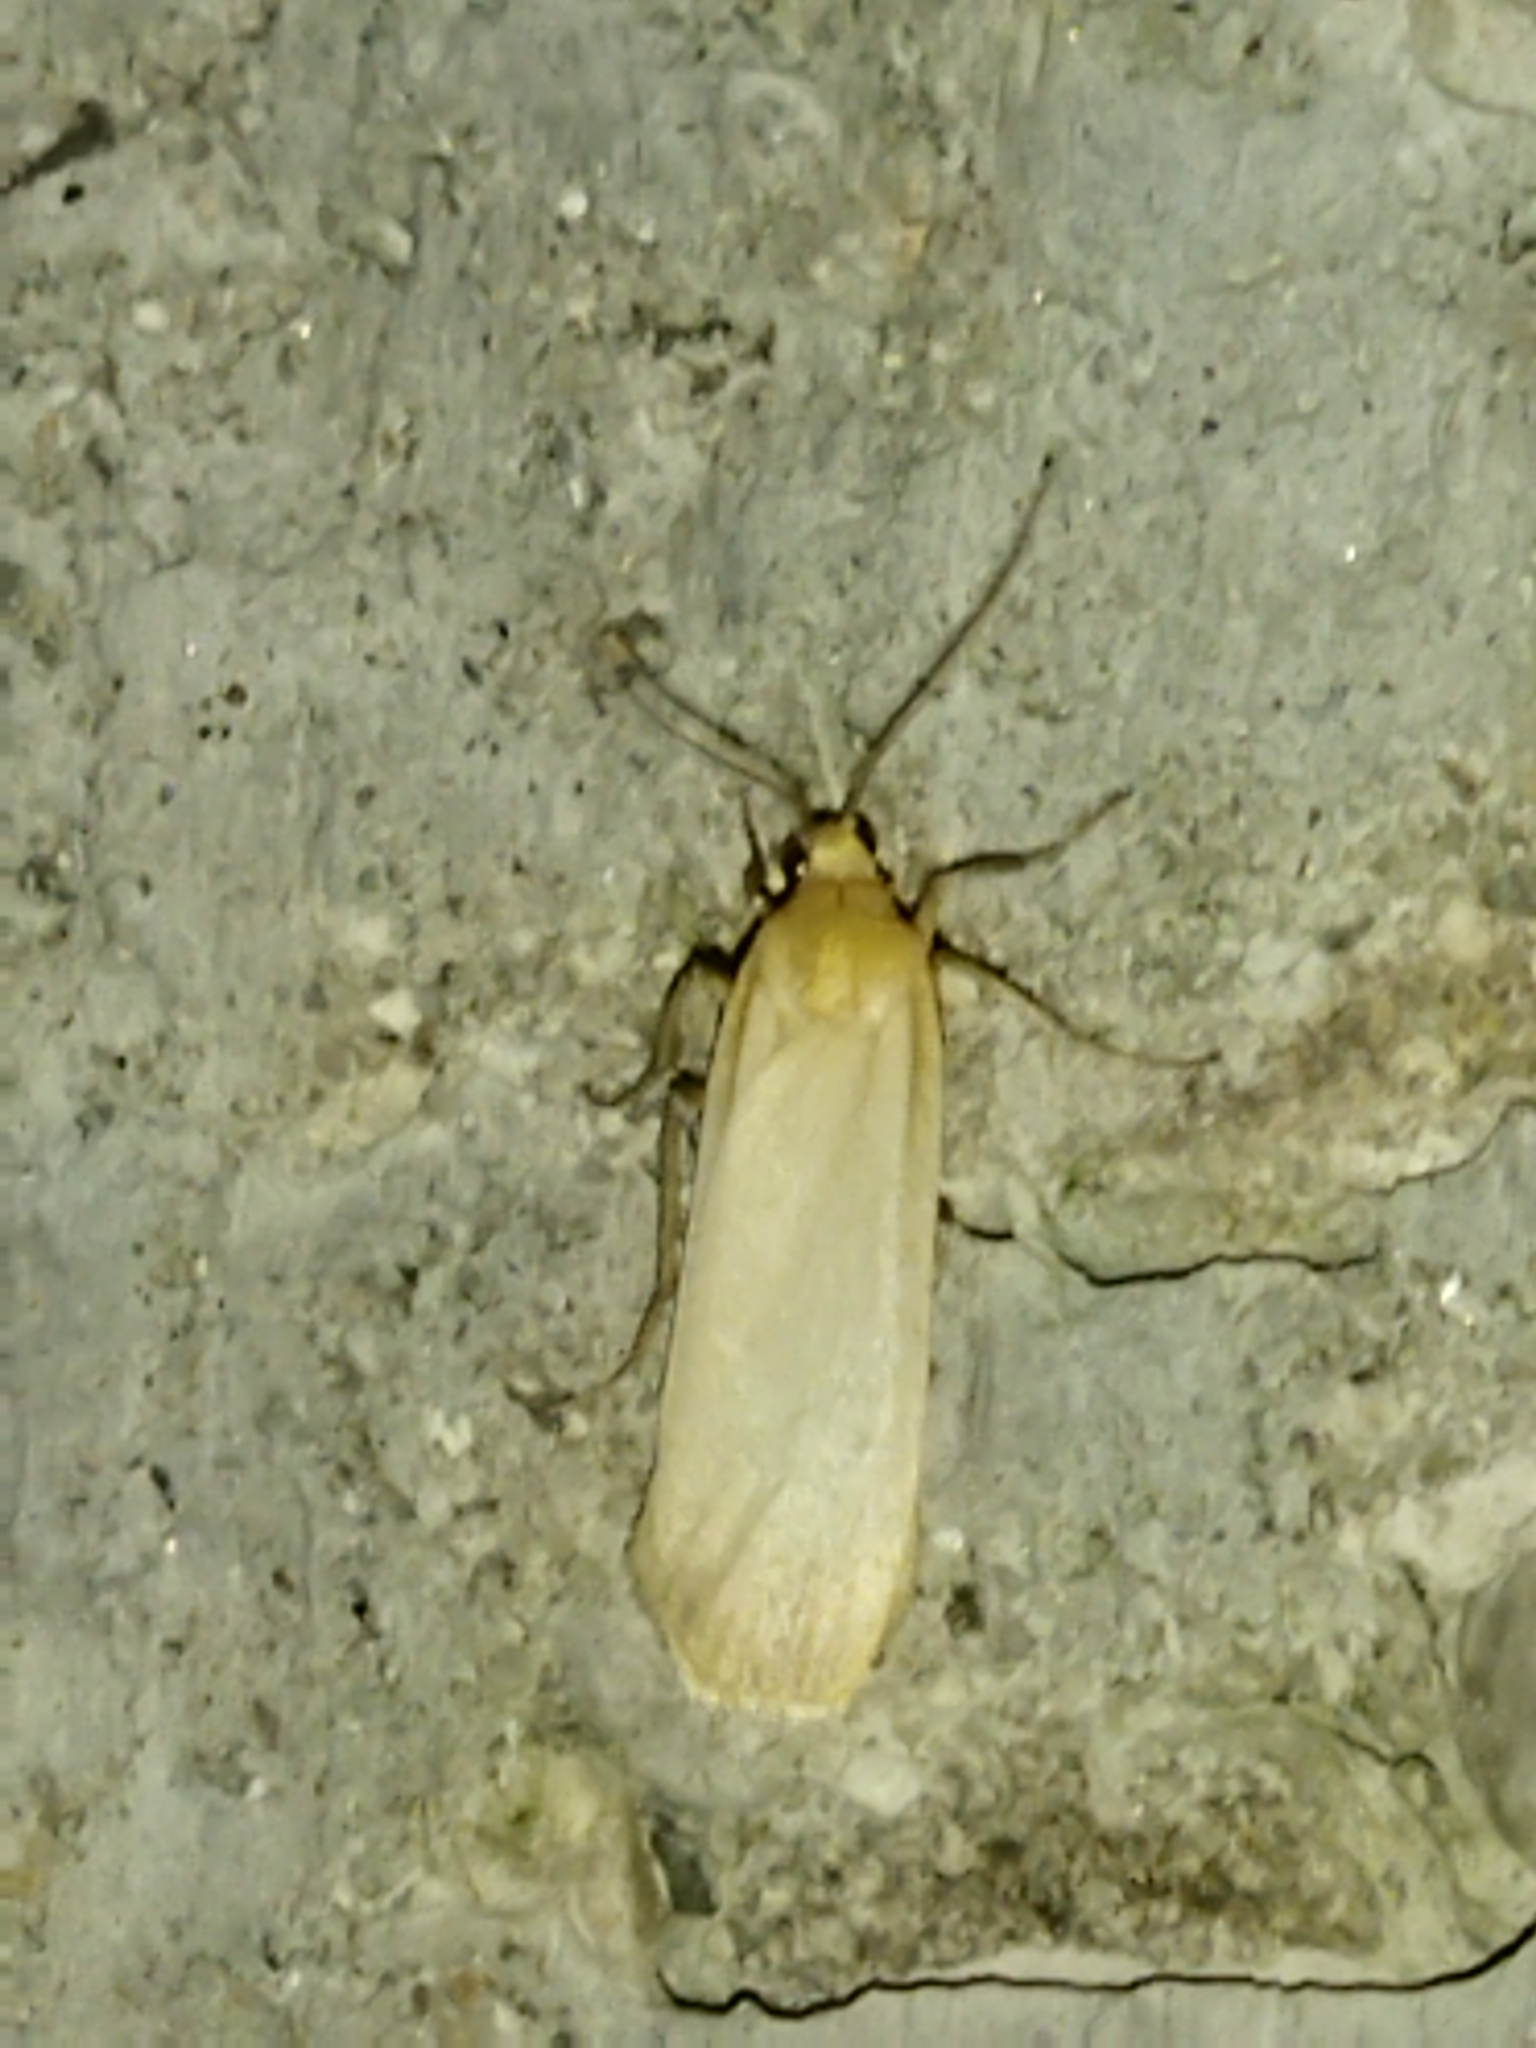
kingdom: Animalia
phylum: Arthropoda
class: Insecta
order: Lepidoptera
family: Erebidae
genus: Katha
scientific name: Katha depressa
